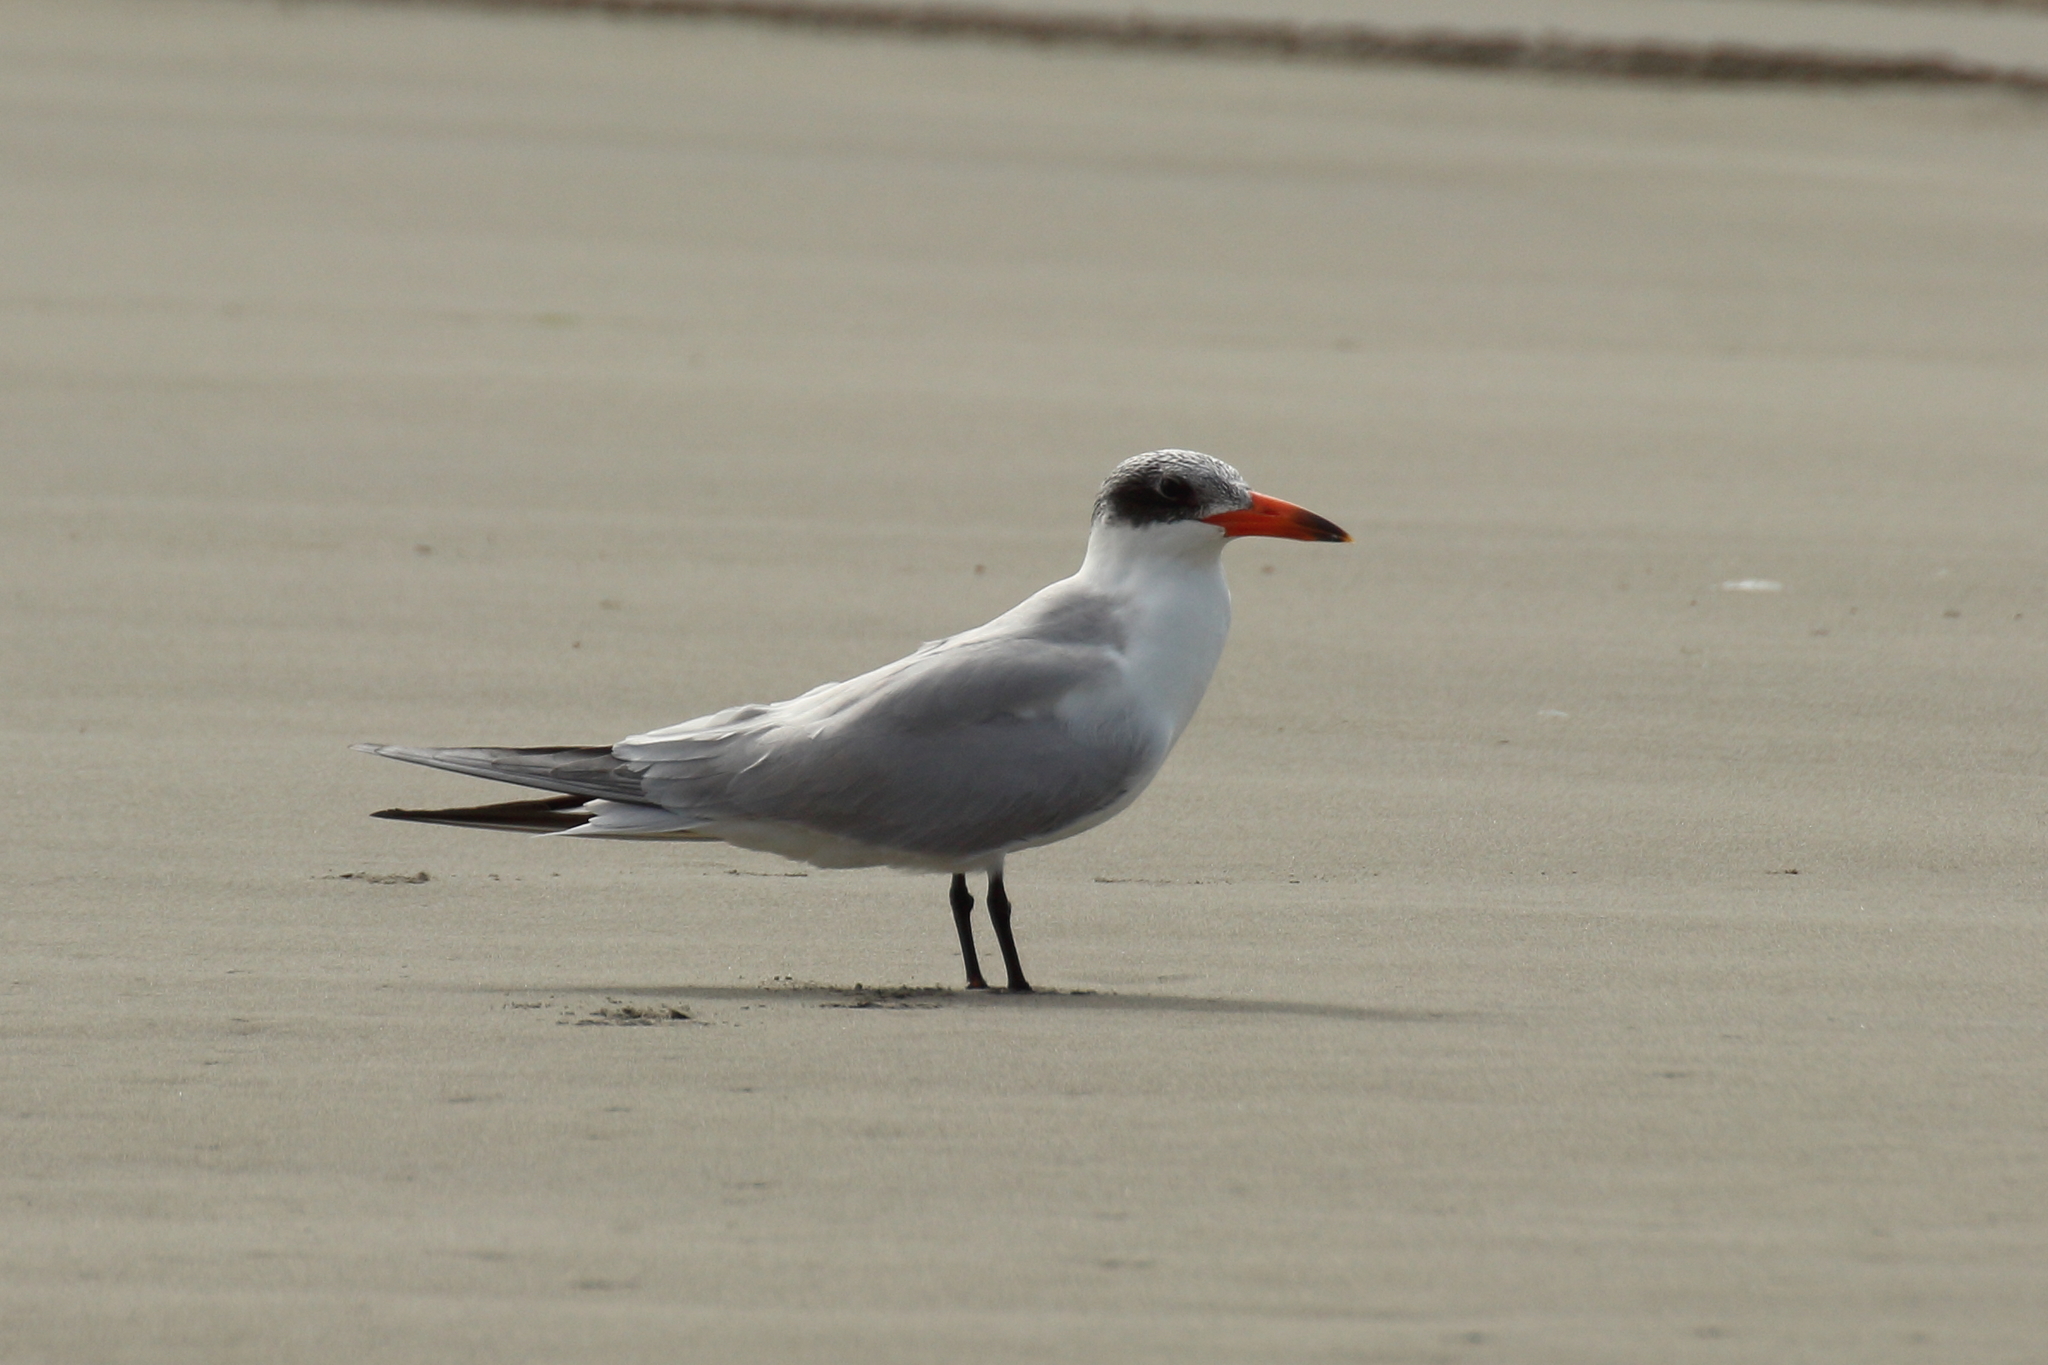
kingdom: Animalia
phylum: Chordata
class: Aves
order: Charadriiformes
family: Laridae
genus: Hydroprogne
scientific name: Hydroprogne caspia
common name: Caspian tern
